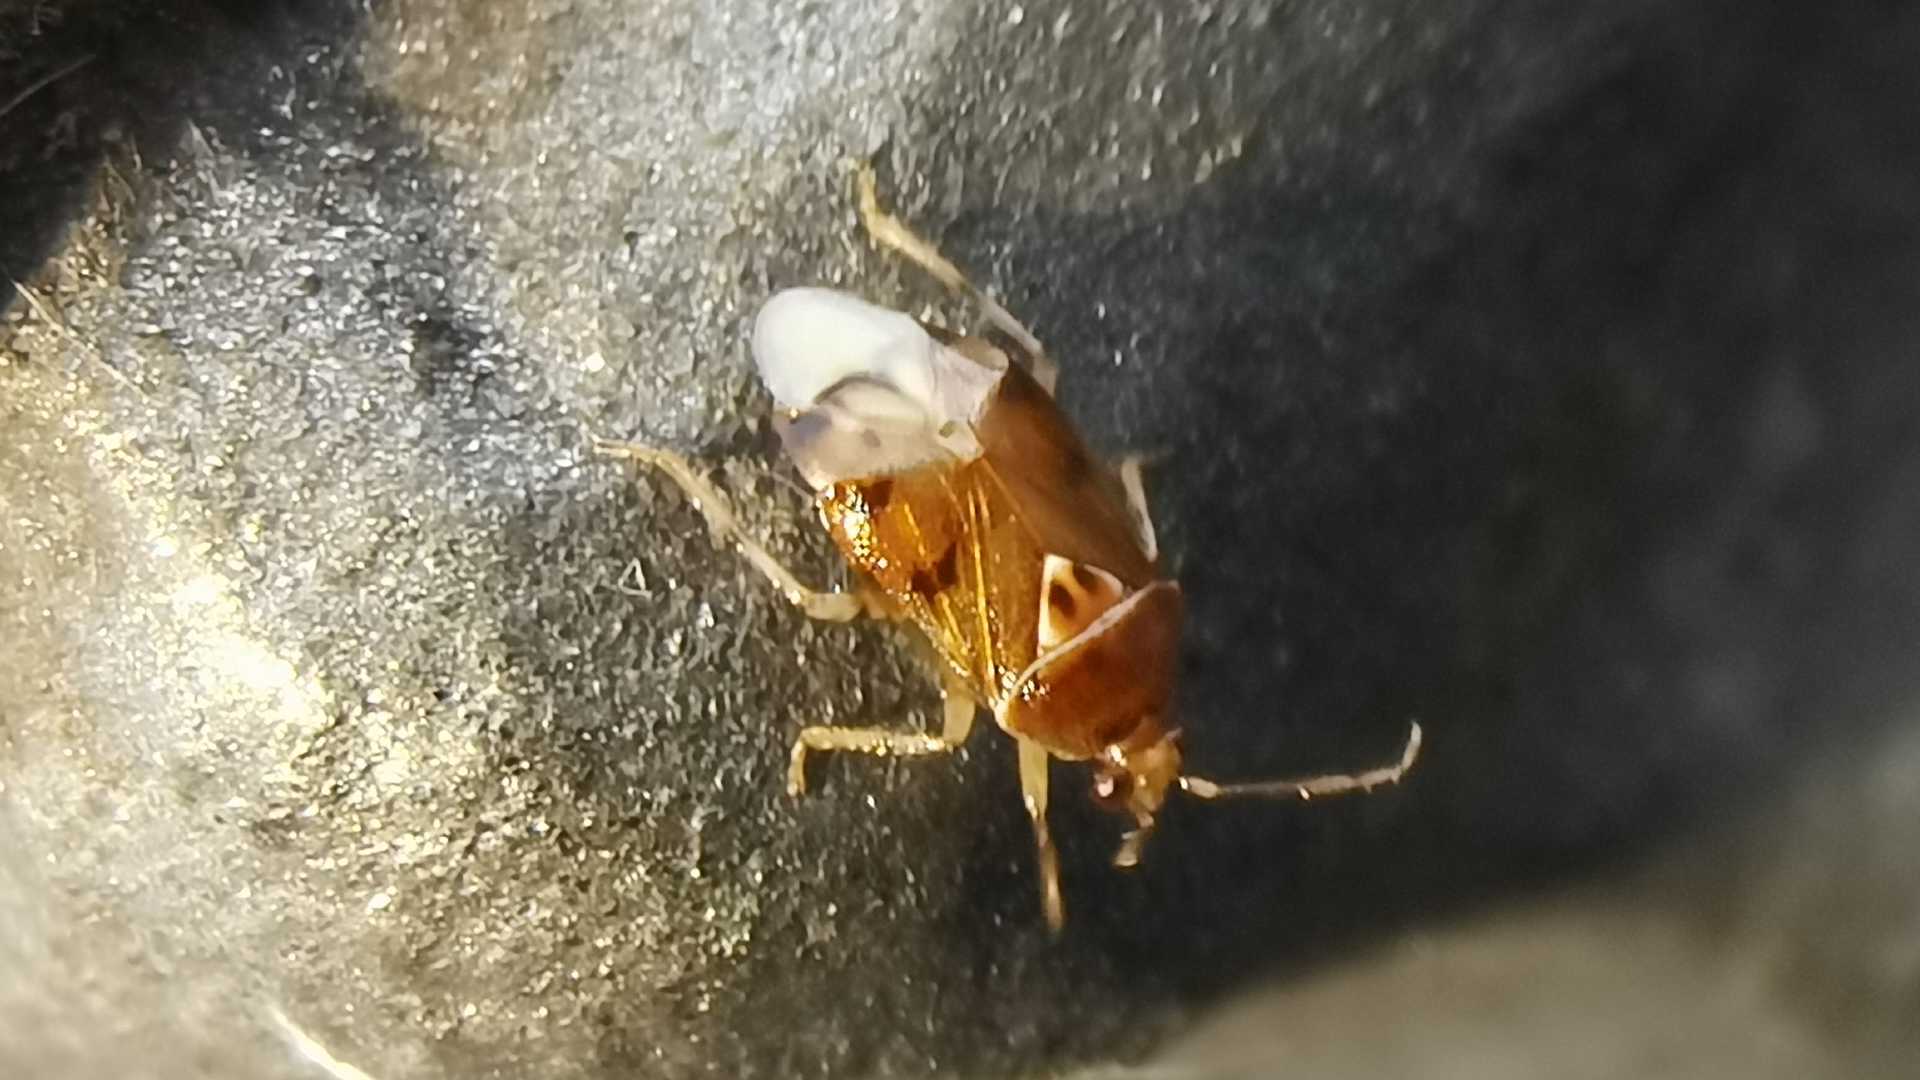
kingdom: Animalia
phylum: Arthropoda
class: Insecta
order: Hemiptera
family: Miridae
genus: Deraeocoris
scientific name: Deraeocoris lutescens
